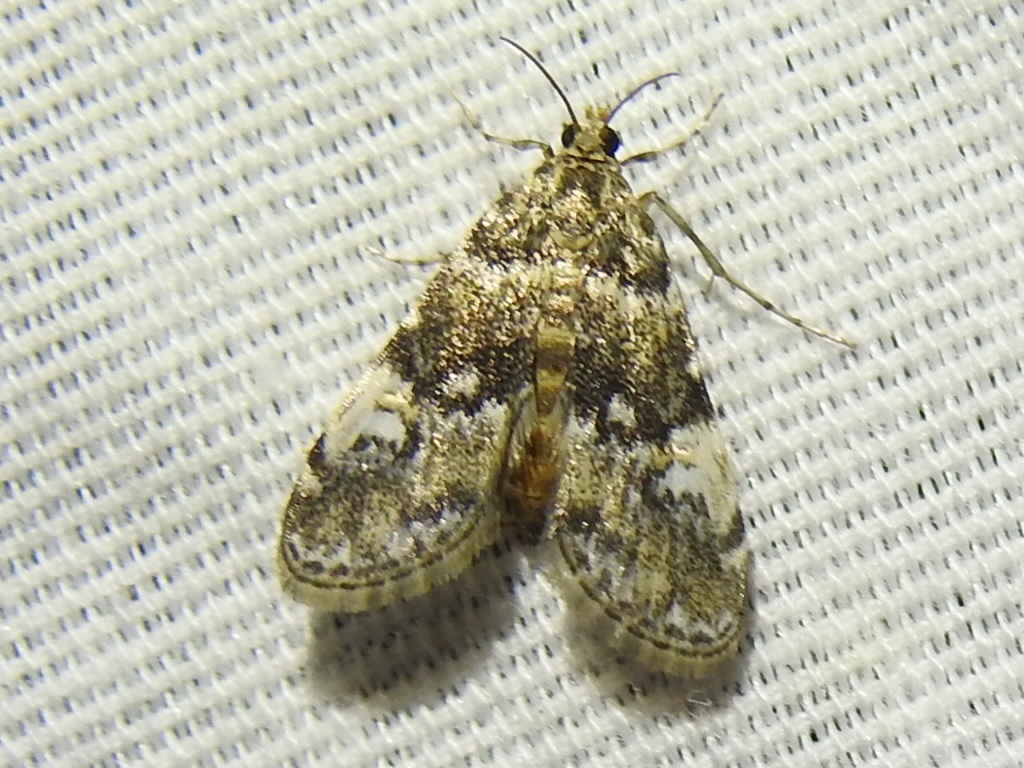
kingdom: Animalia
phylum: Arthropoda
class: Insecta
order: Lepidoptera
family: Crambidae
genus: Elophila
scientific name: Elophila obliteralis
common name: Waterlily leafcutter moth
